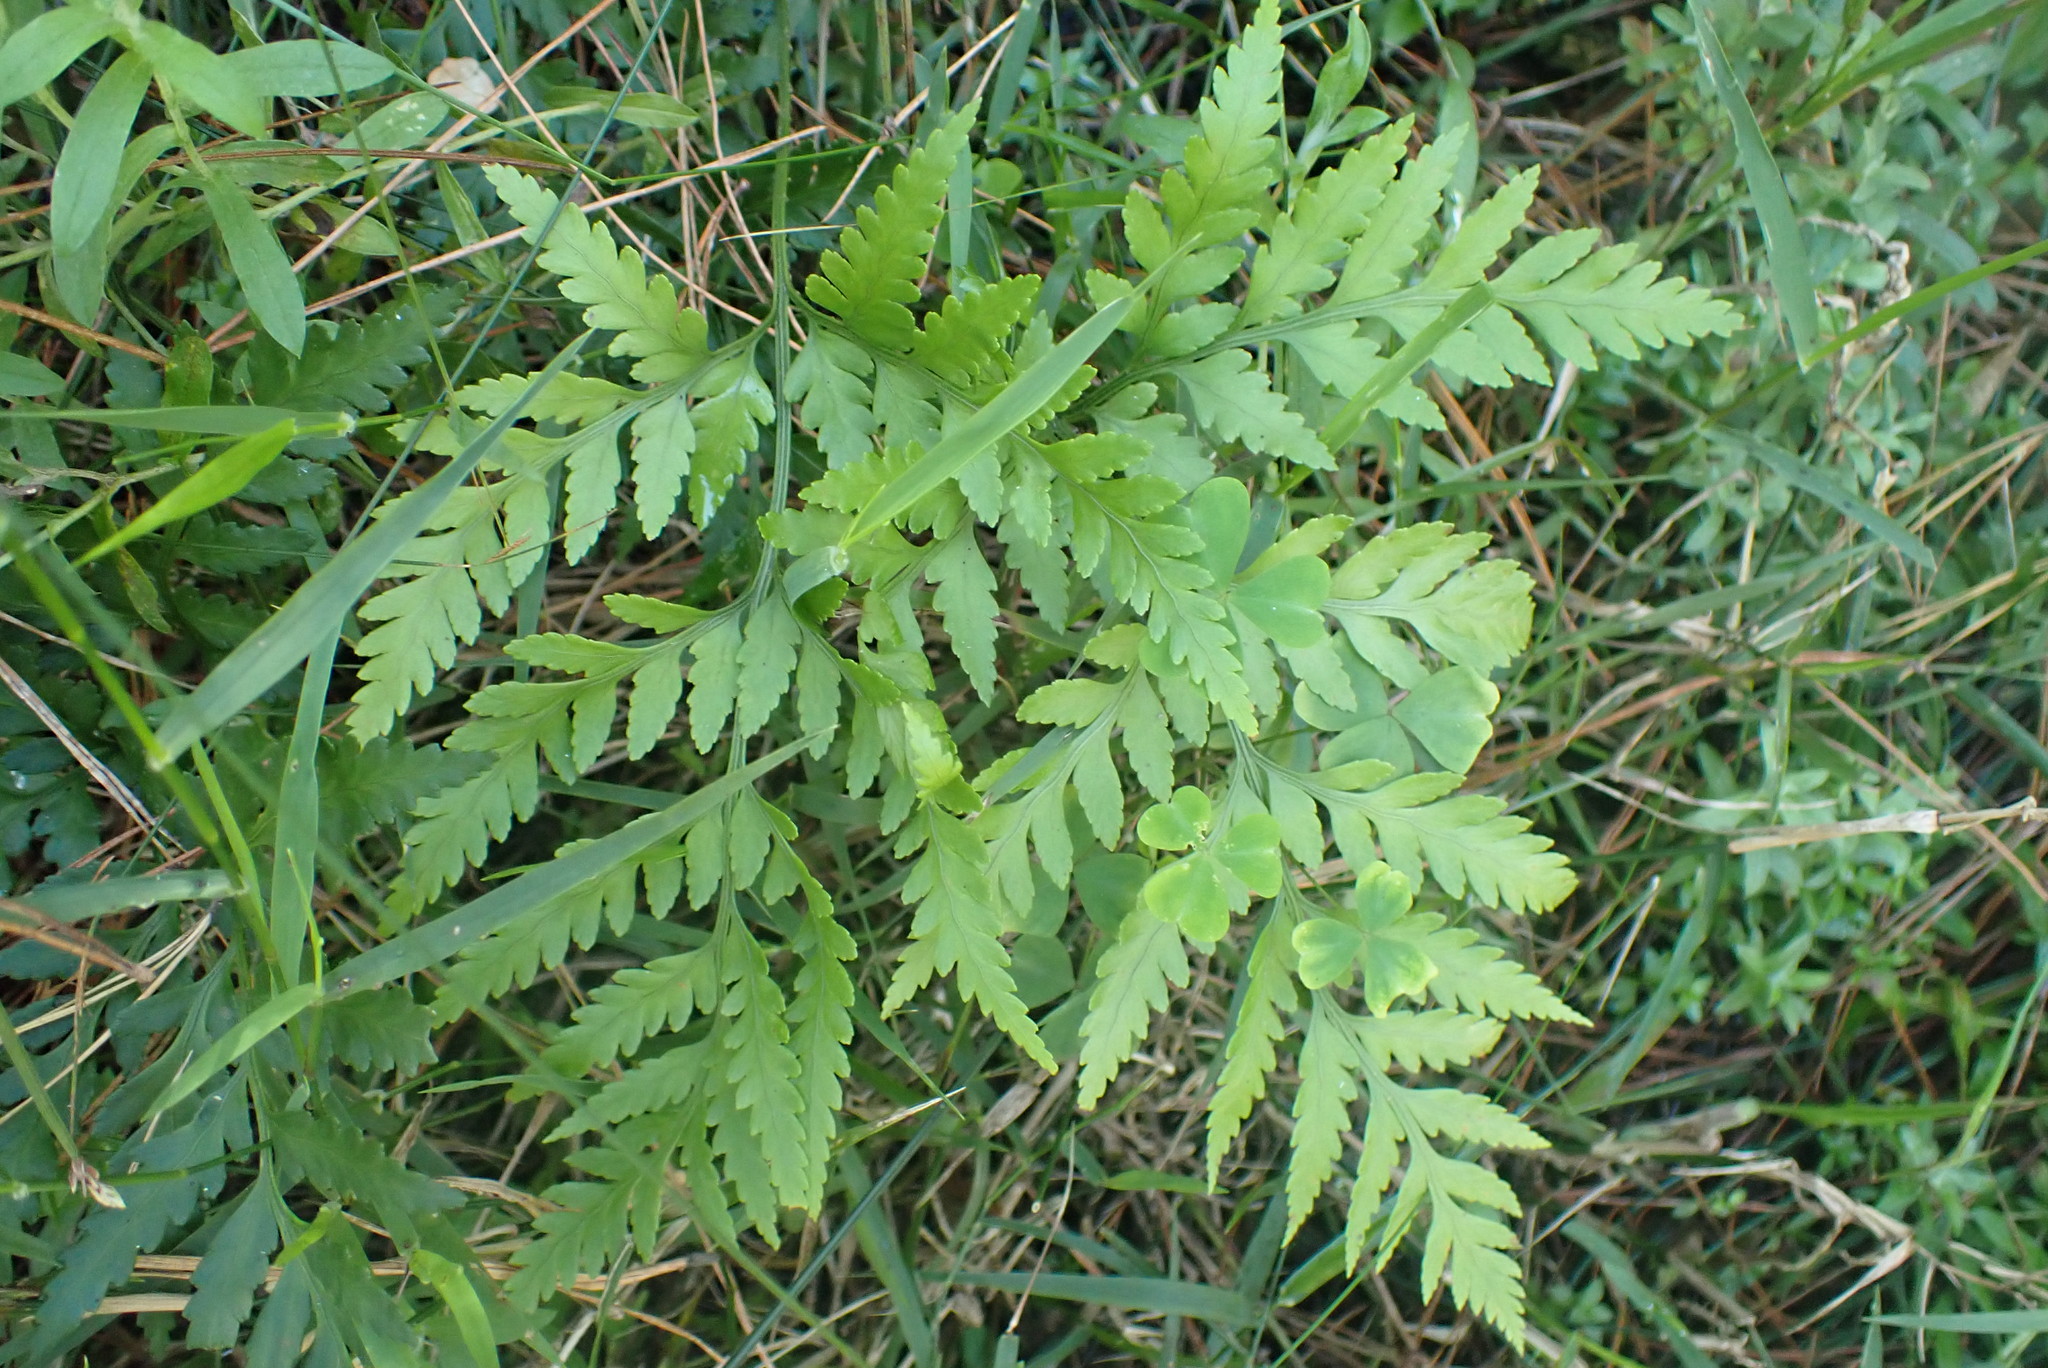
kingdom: Plantae
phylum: Tracheophyta
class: Polypodiopsida
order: Polypodiales
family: Dryopteridaceae
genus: Rumohra
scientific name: Rumohra adiantiformis
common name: Leather fern
